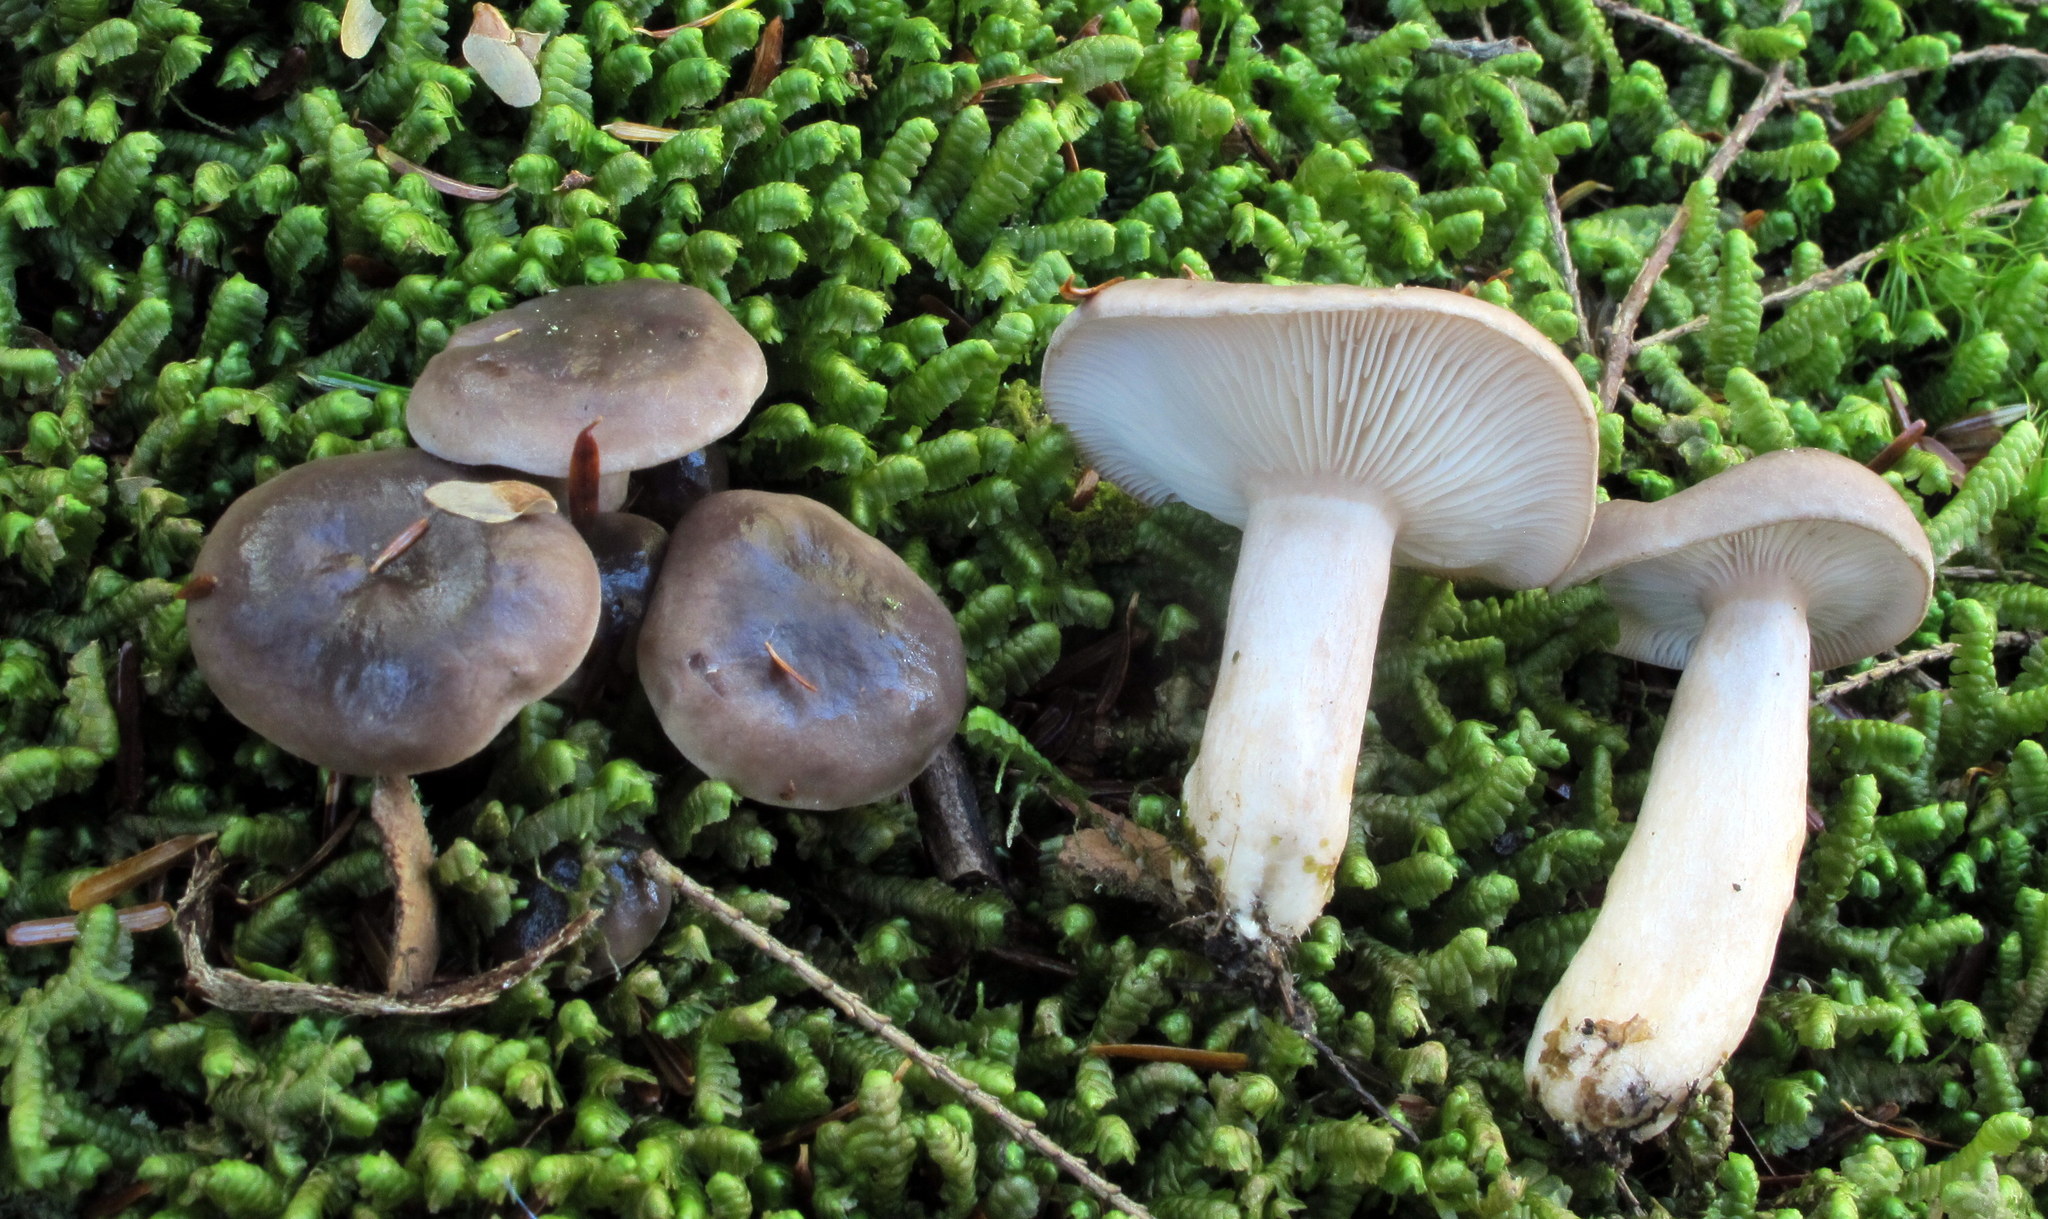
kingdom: Fungi
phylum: Basidiomycota
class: Agaricomycetes
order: Russulales
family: Russulaceae
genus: Lactarius
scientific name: Lactarius mucidus
